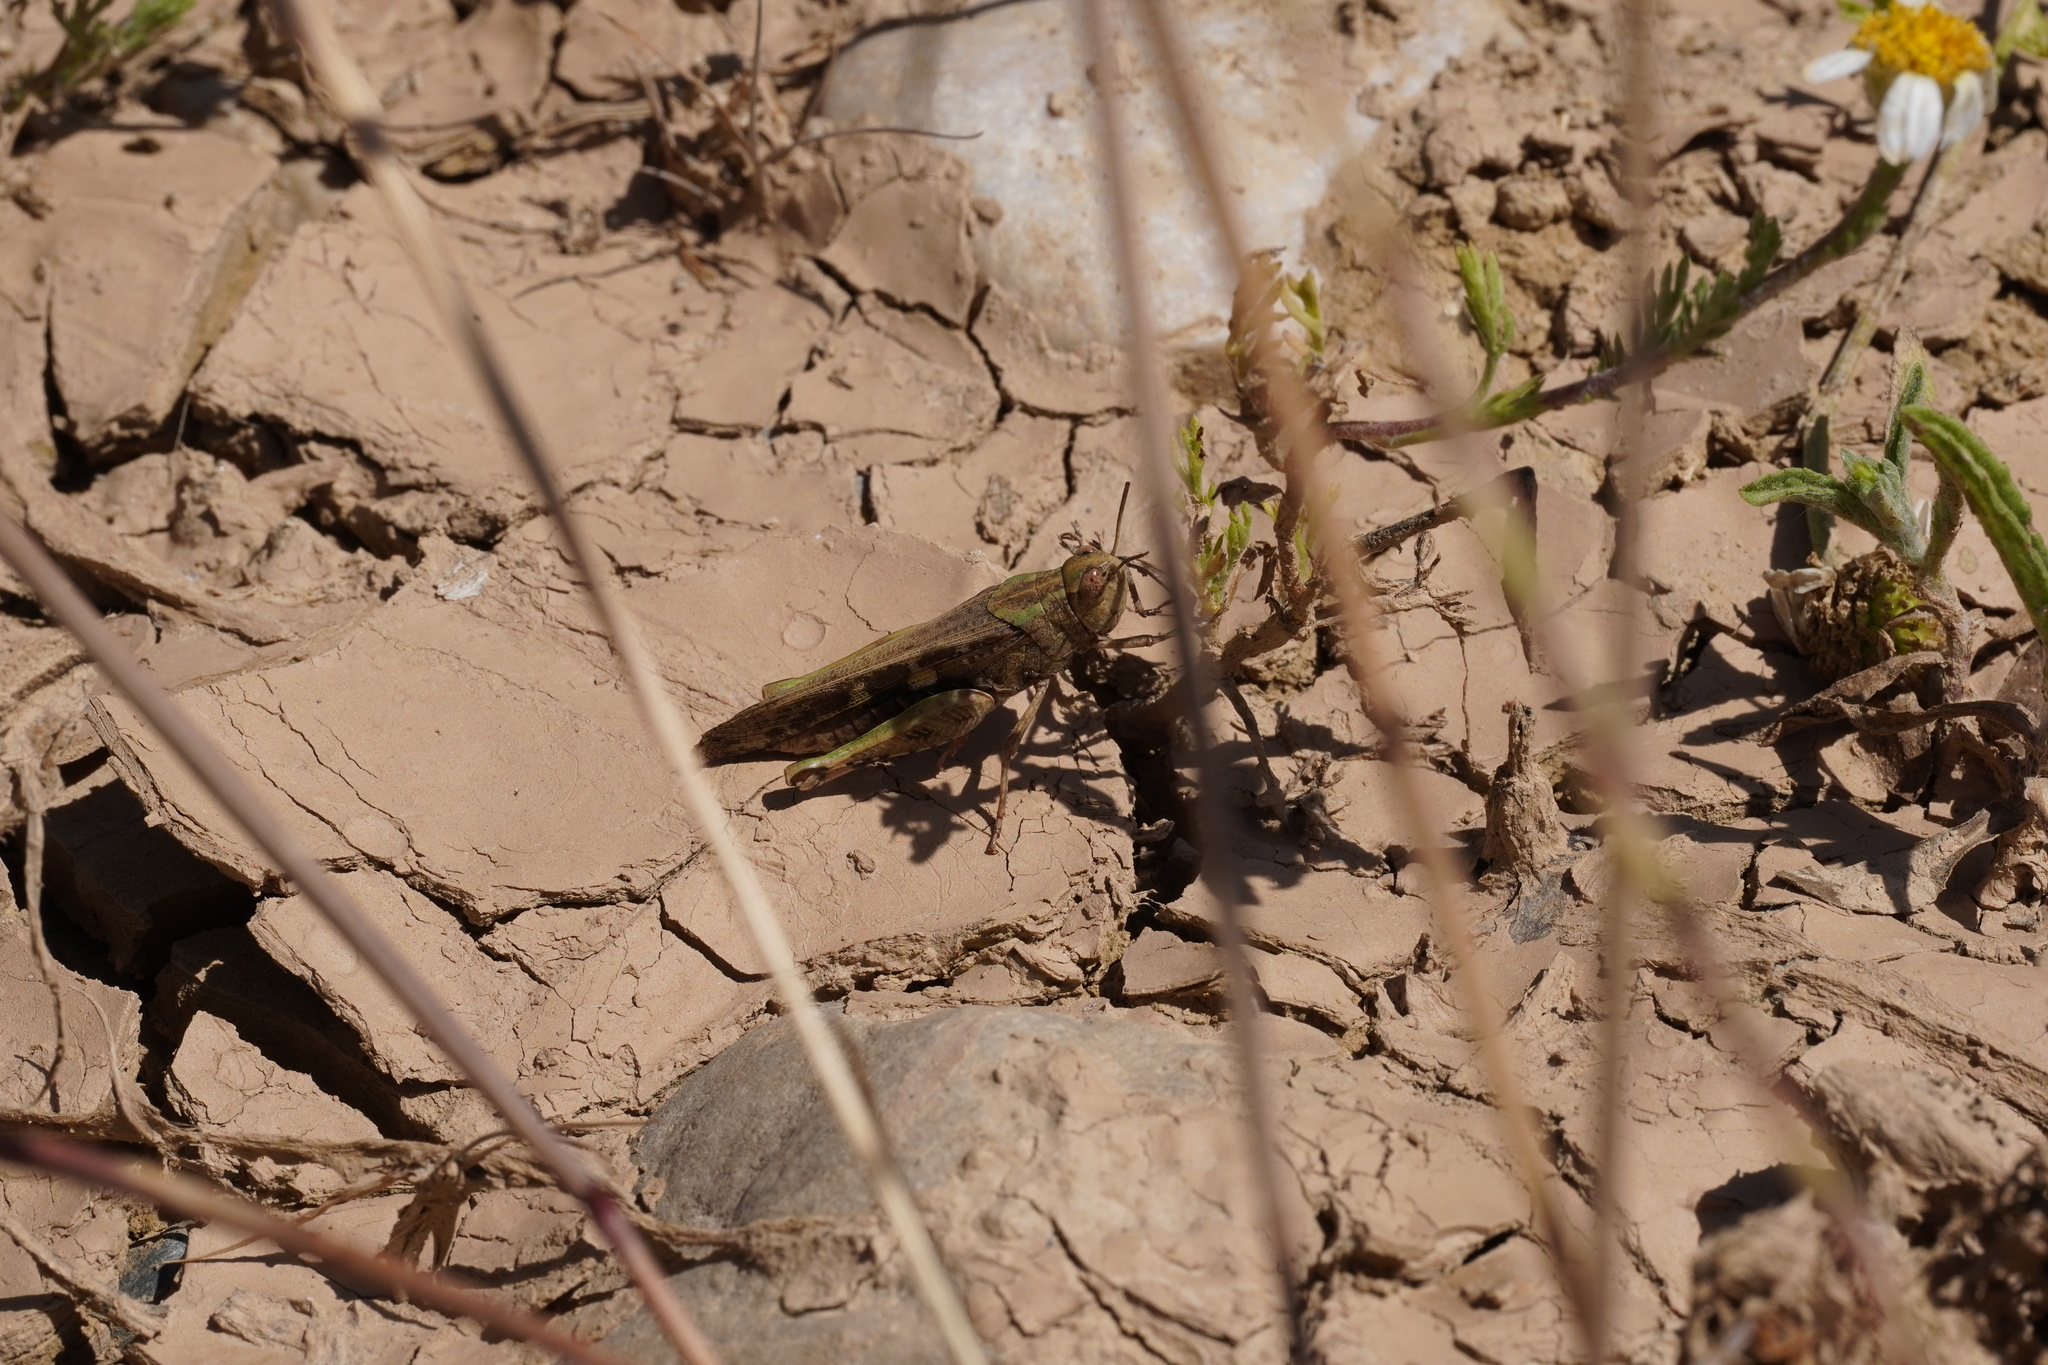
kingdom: Animalia
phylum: Arthropoda
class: Insecta
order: Orthoptera
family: Acrididae
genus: Aiolopus
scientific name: Aiolopus strepens
